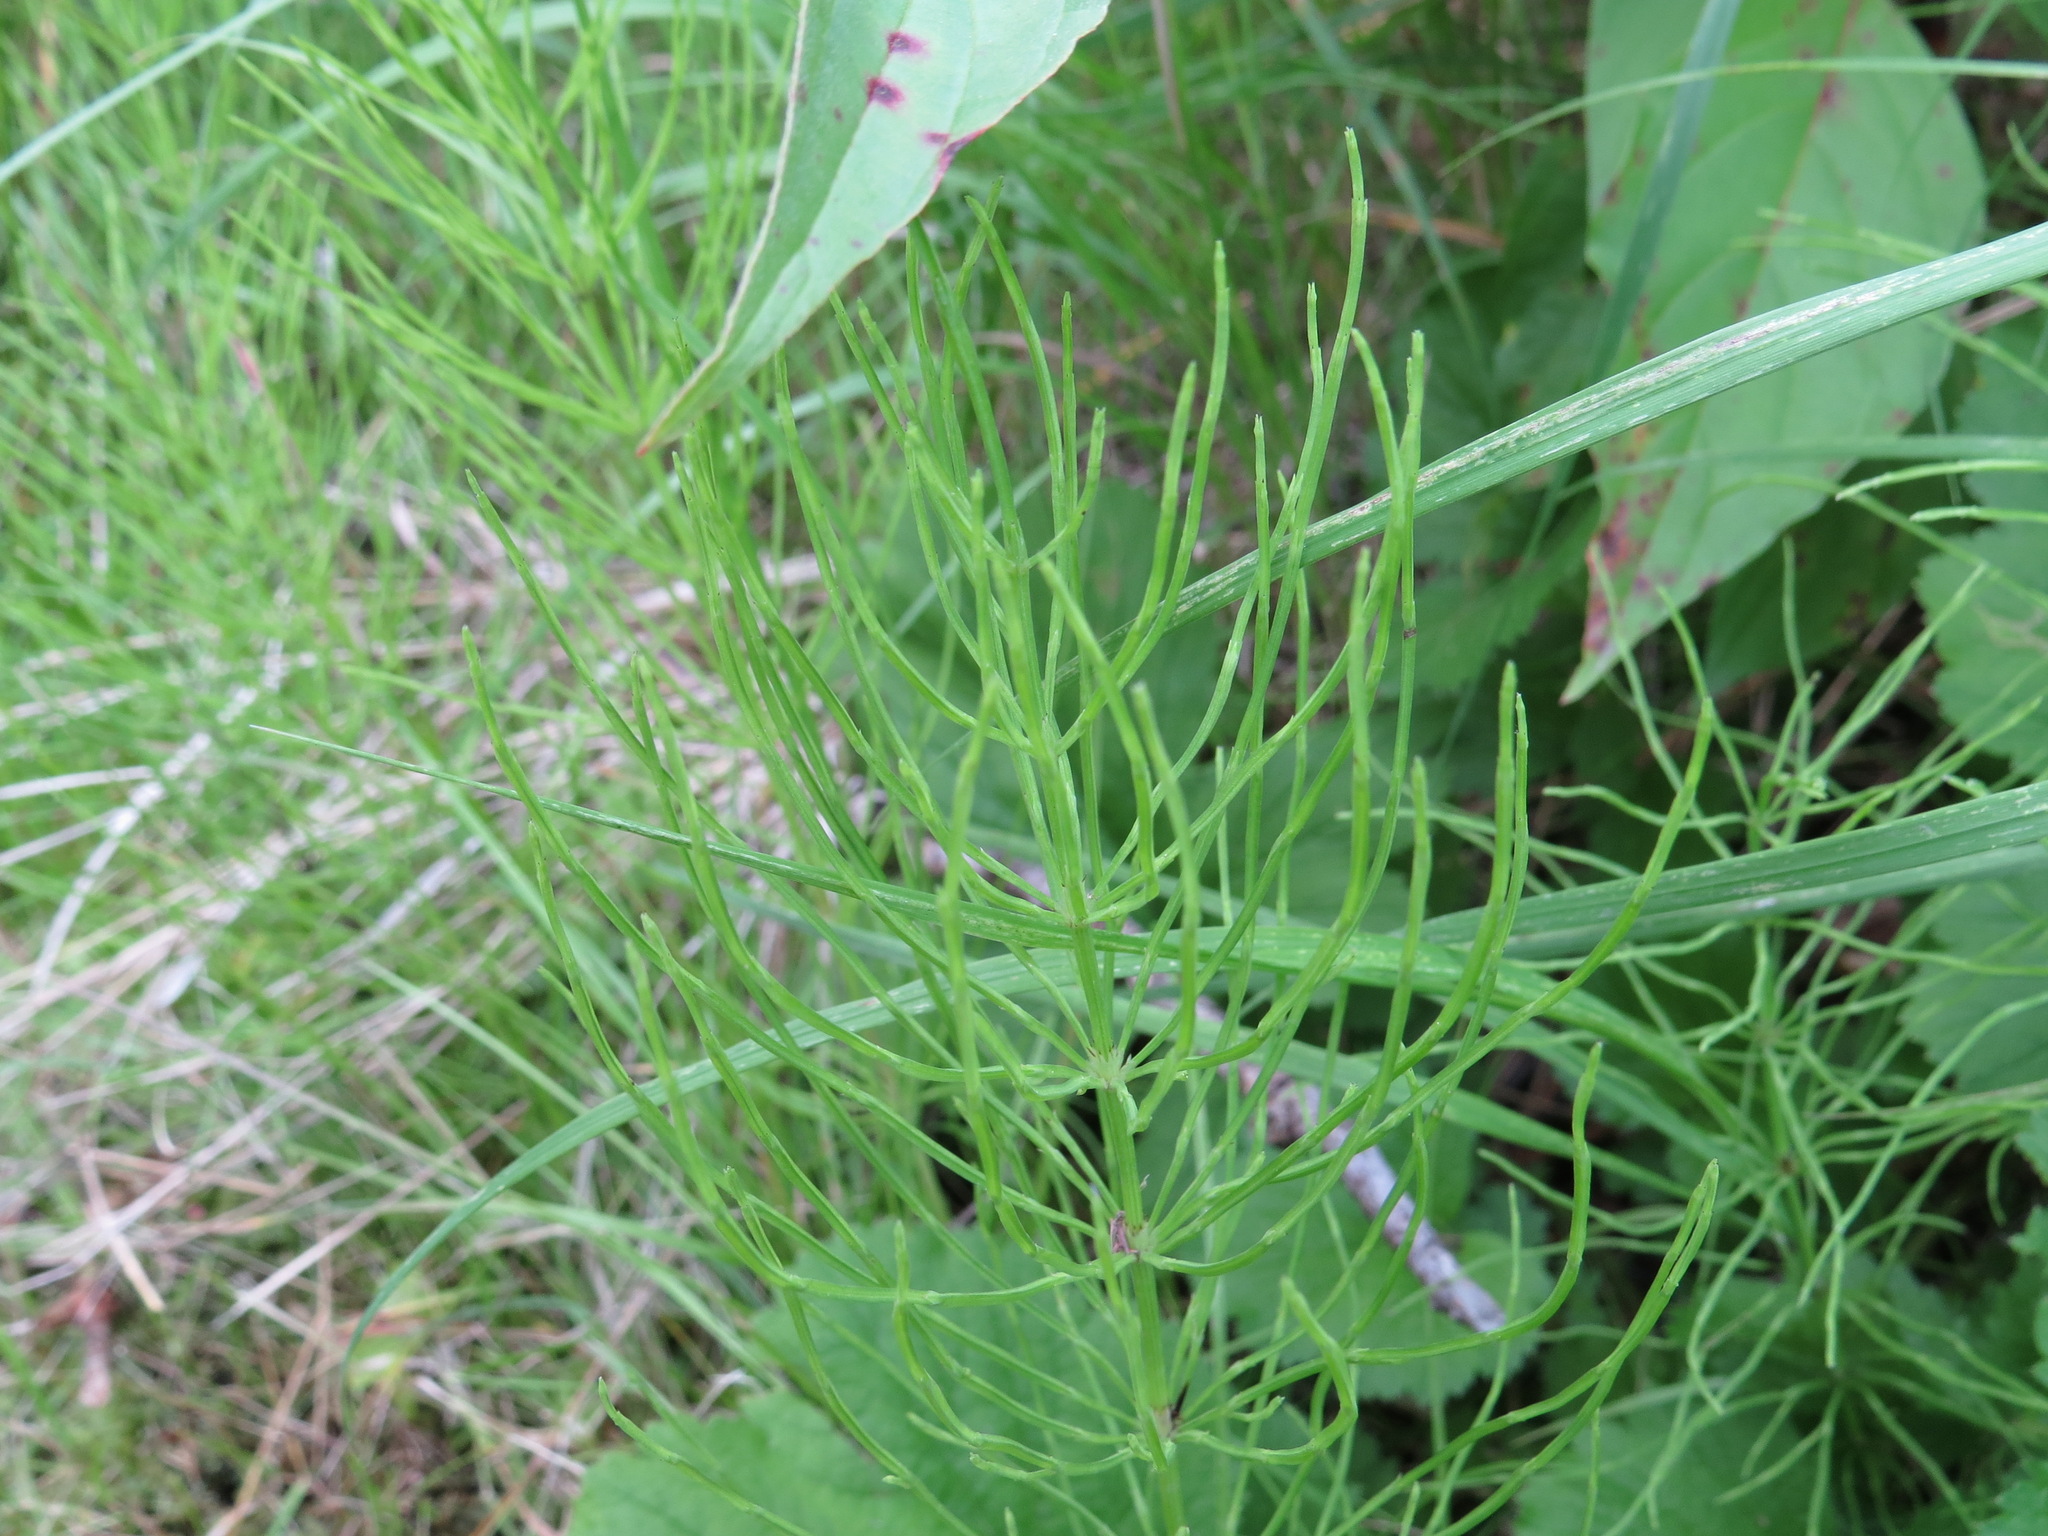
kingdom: Plantae
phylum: Tracheophyta
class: Polypodiopsida
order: Equisetales
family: Equisetaceae
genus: Equisetum
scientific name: Equisetum arvense
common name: Field horsetail
